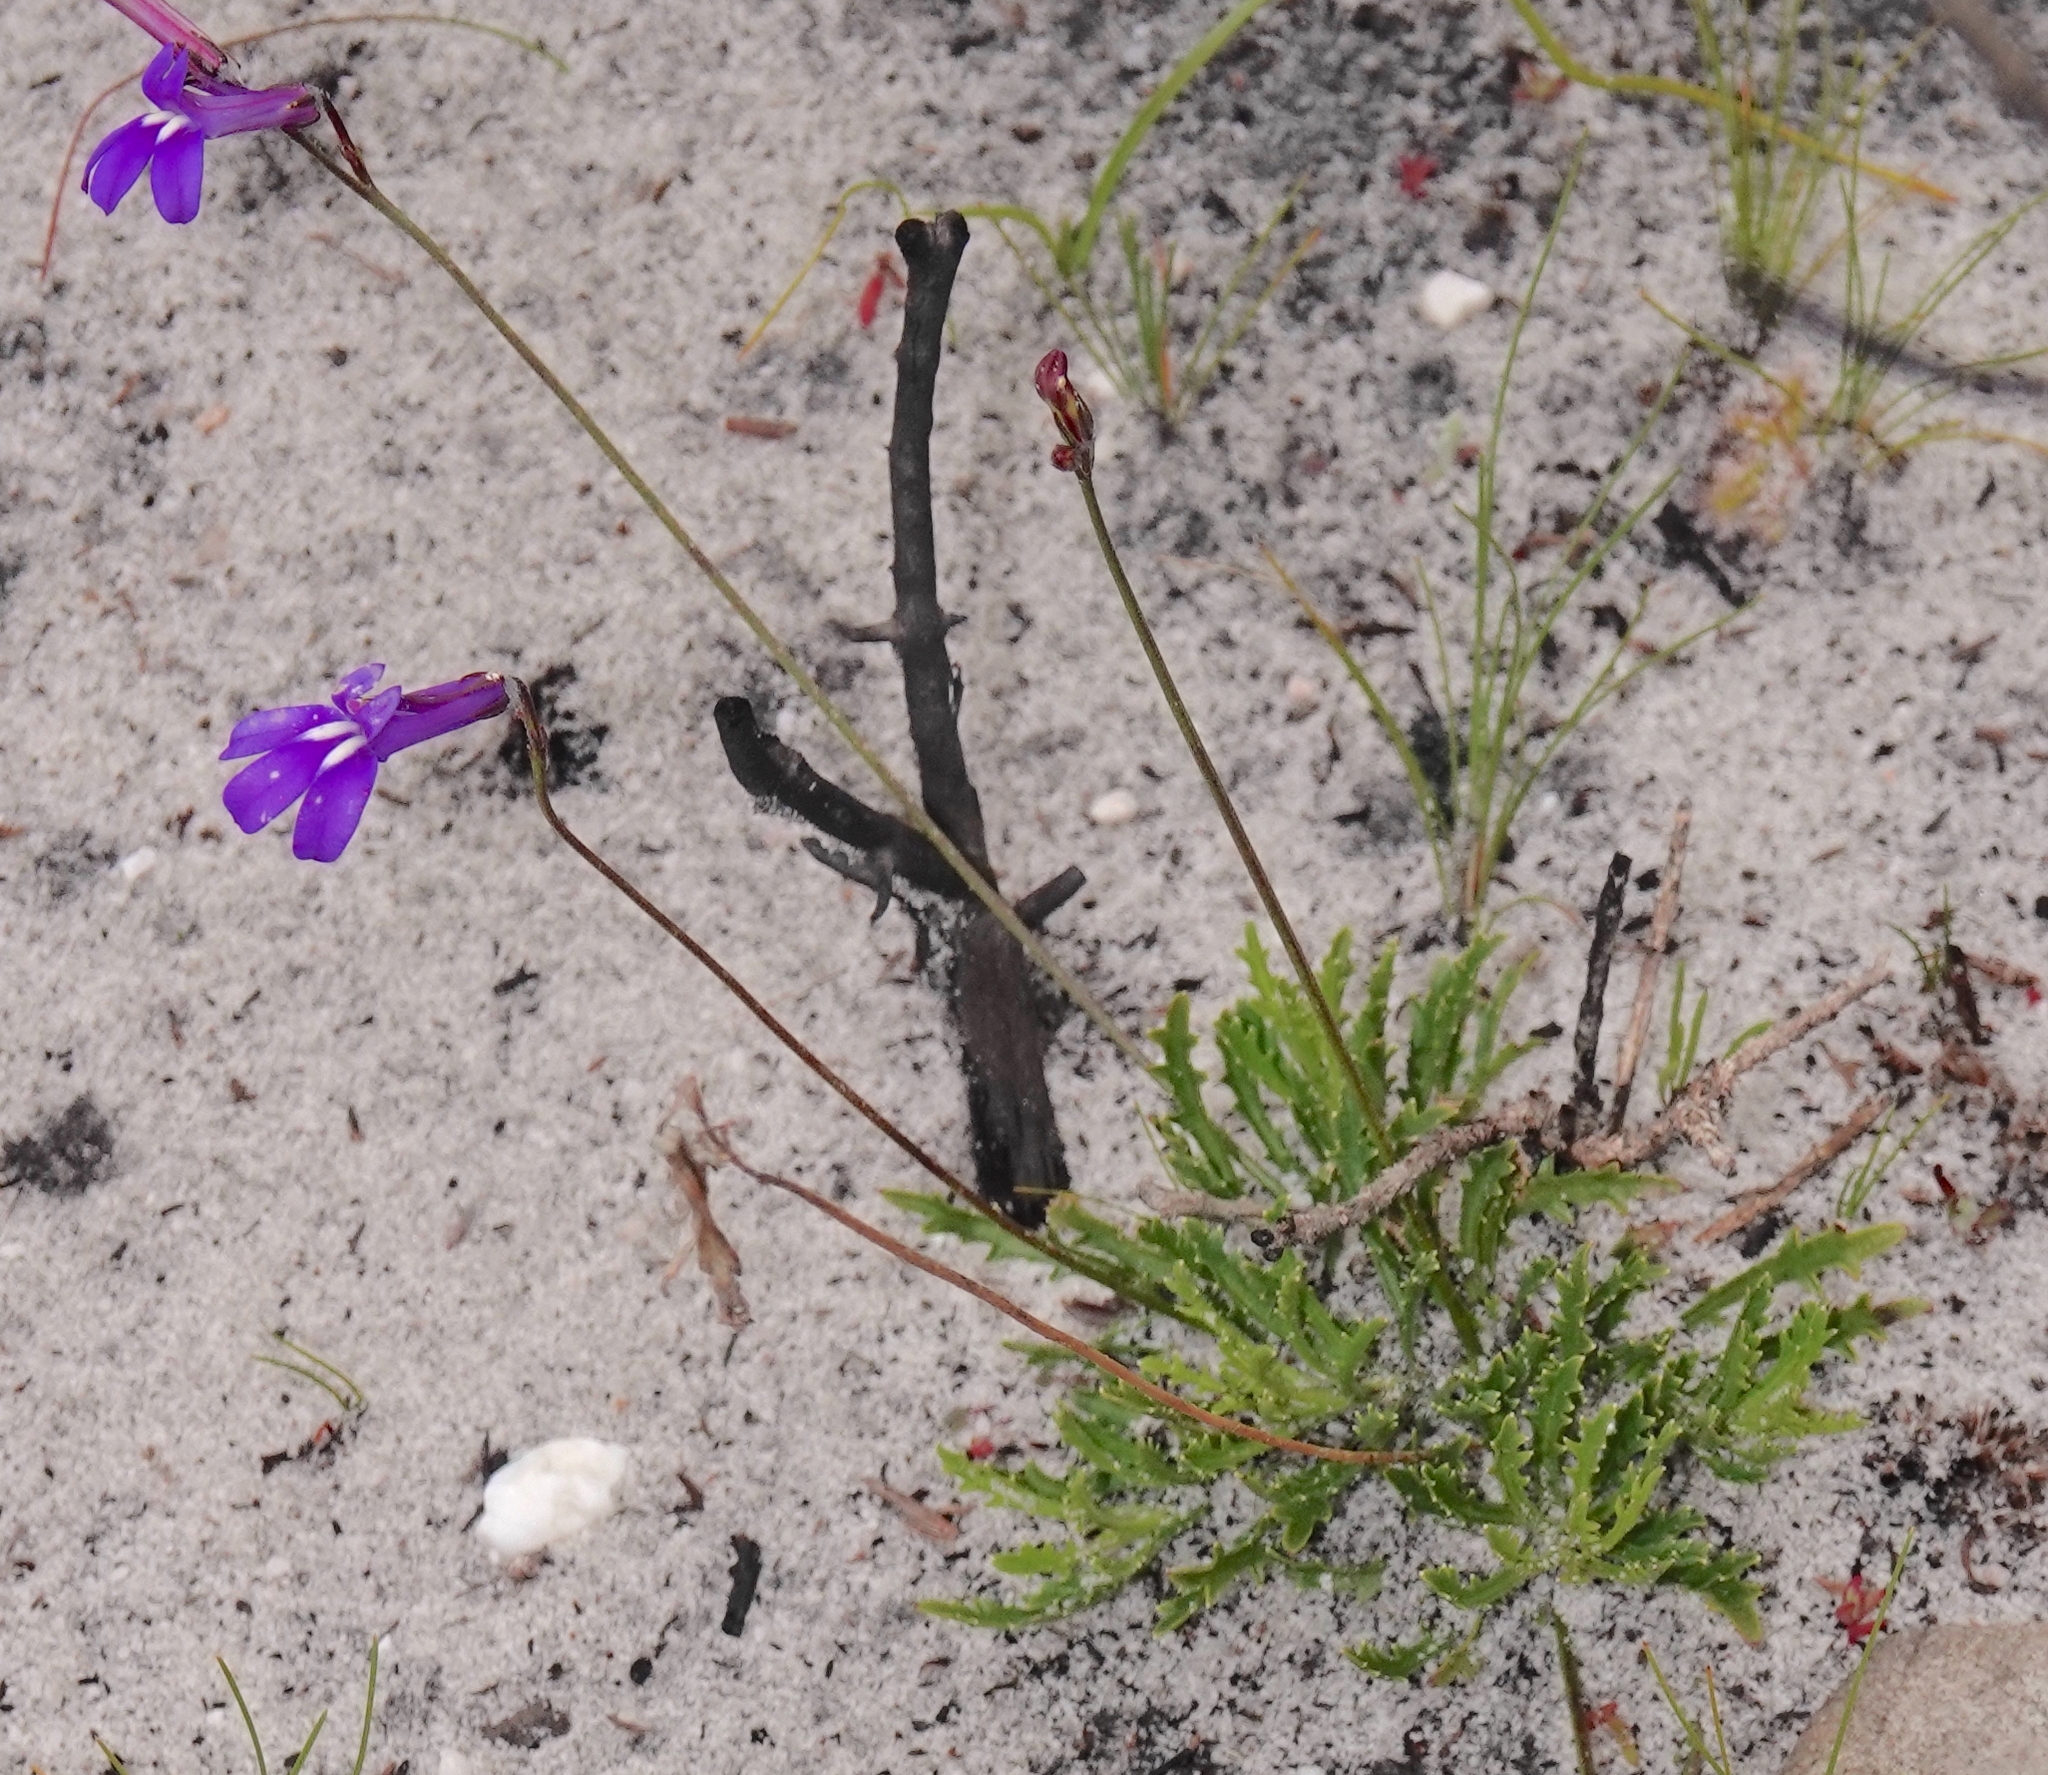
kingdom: Plantae
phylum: Tracheophyta
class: Magnoliopsida
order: Asterales
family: Campanulaceae
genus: Lobelia
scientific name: Lobelia coronopifolia
